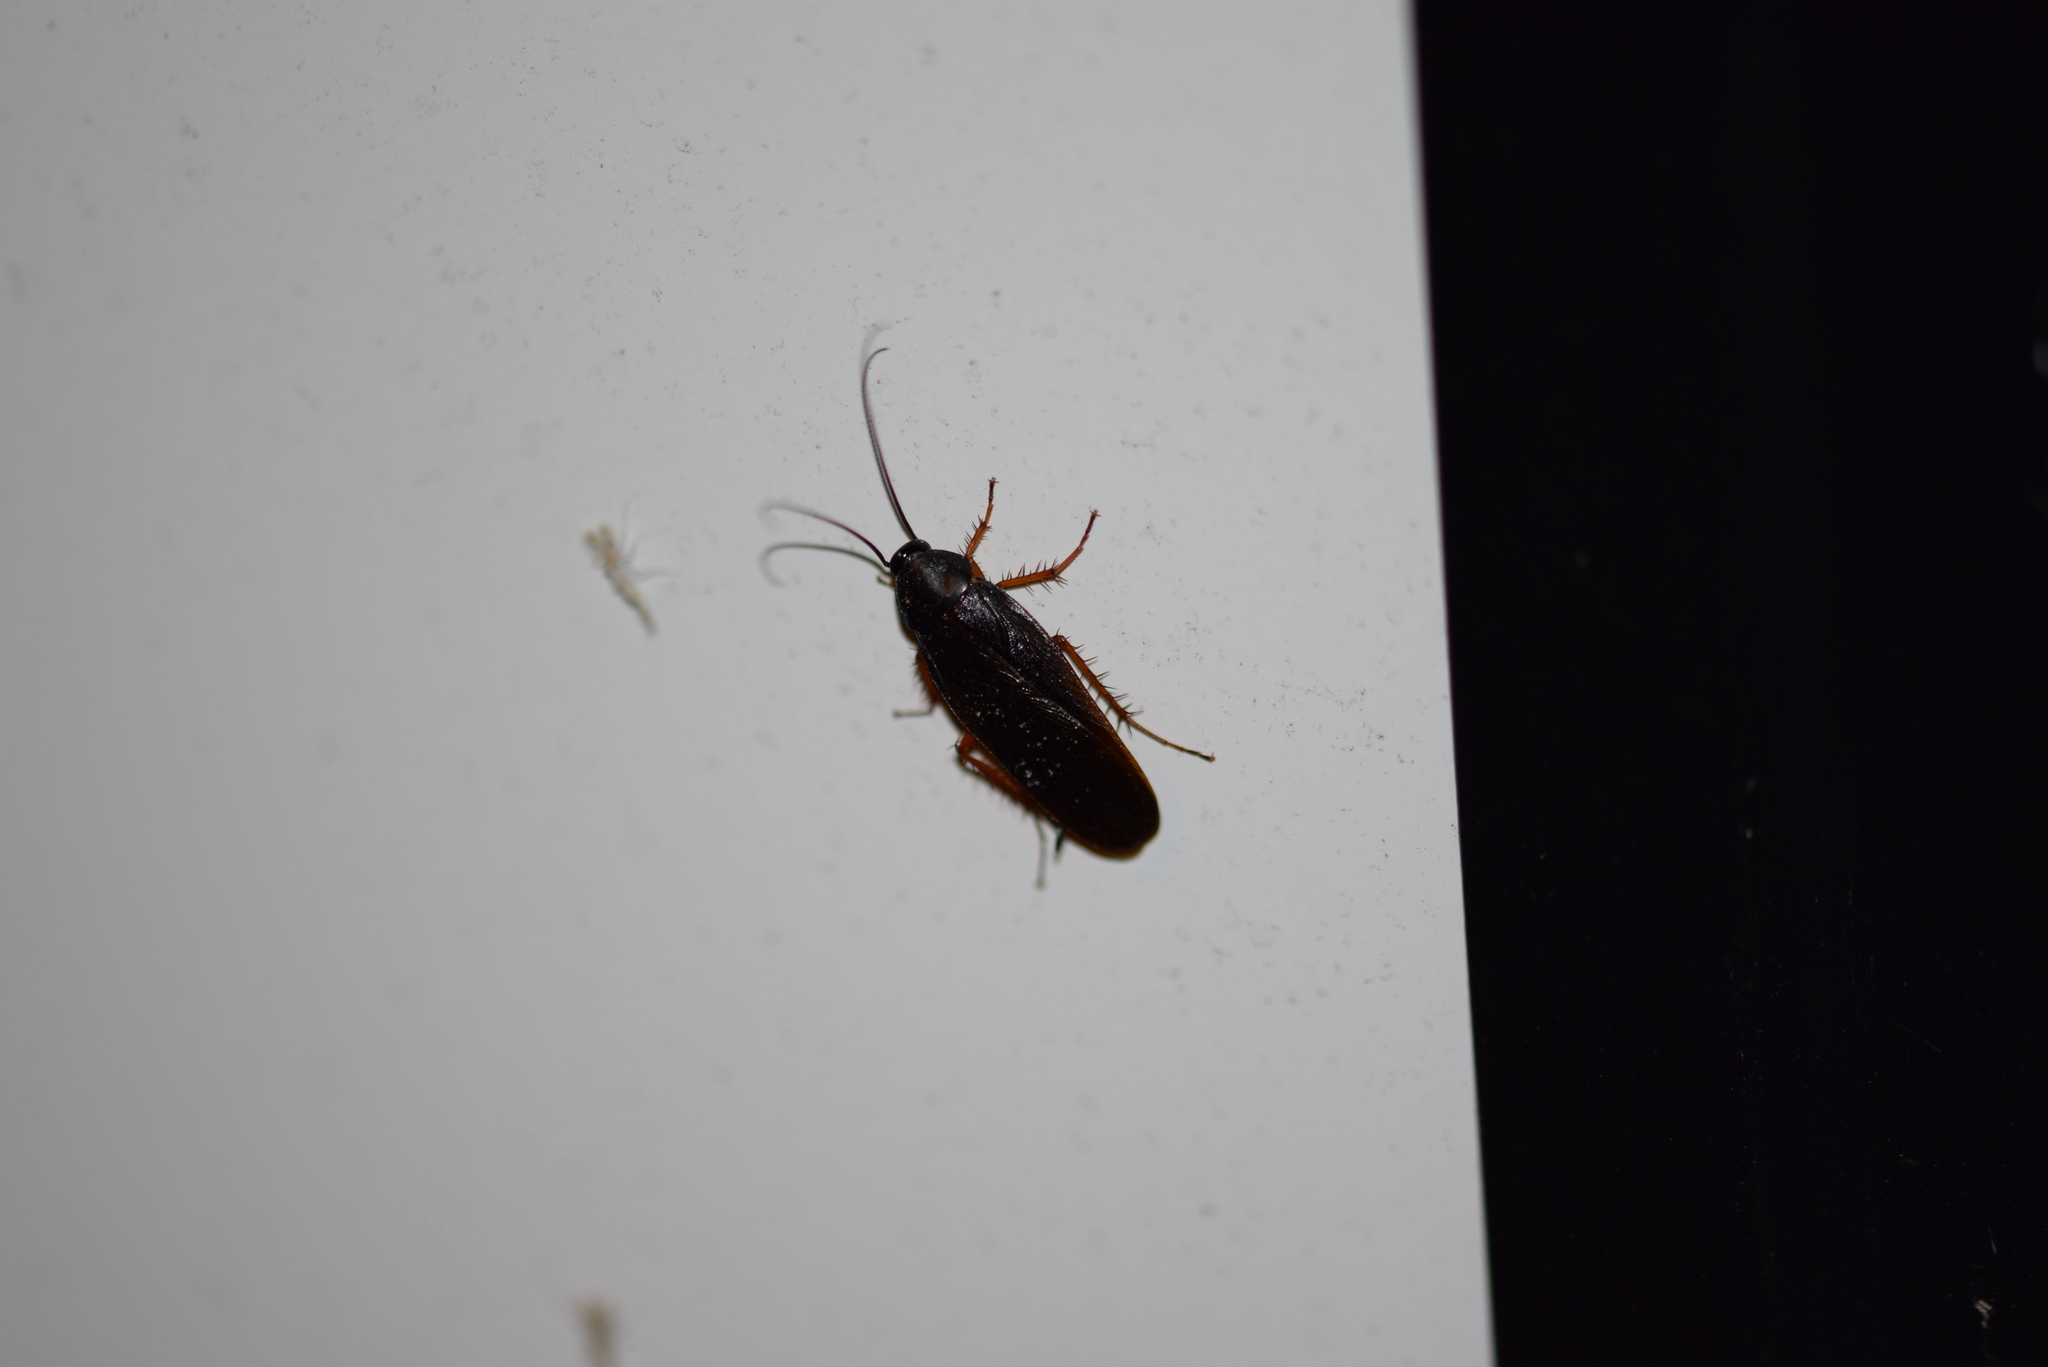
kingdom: Animalia
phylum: Arthropoda
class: Insecta
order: Blattodea
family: Ectobiidae
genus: Ischnoptera
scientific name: Ischnoptera deropeltiformis
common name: Dark wood cockroach
